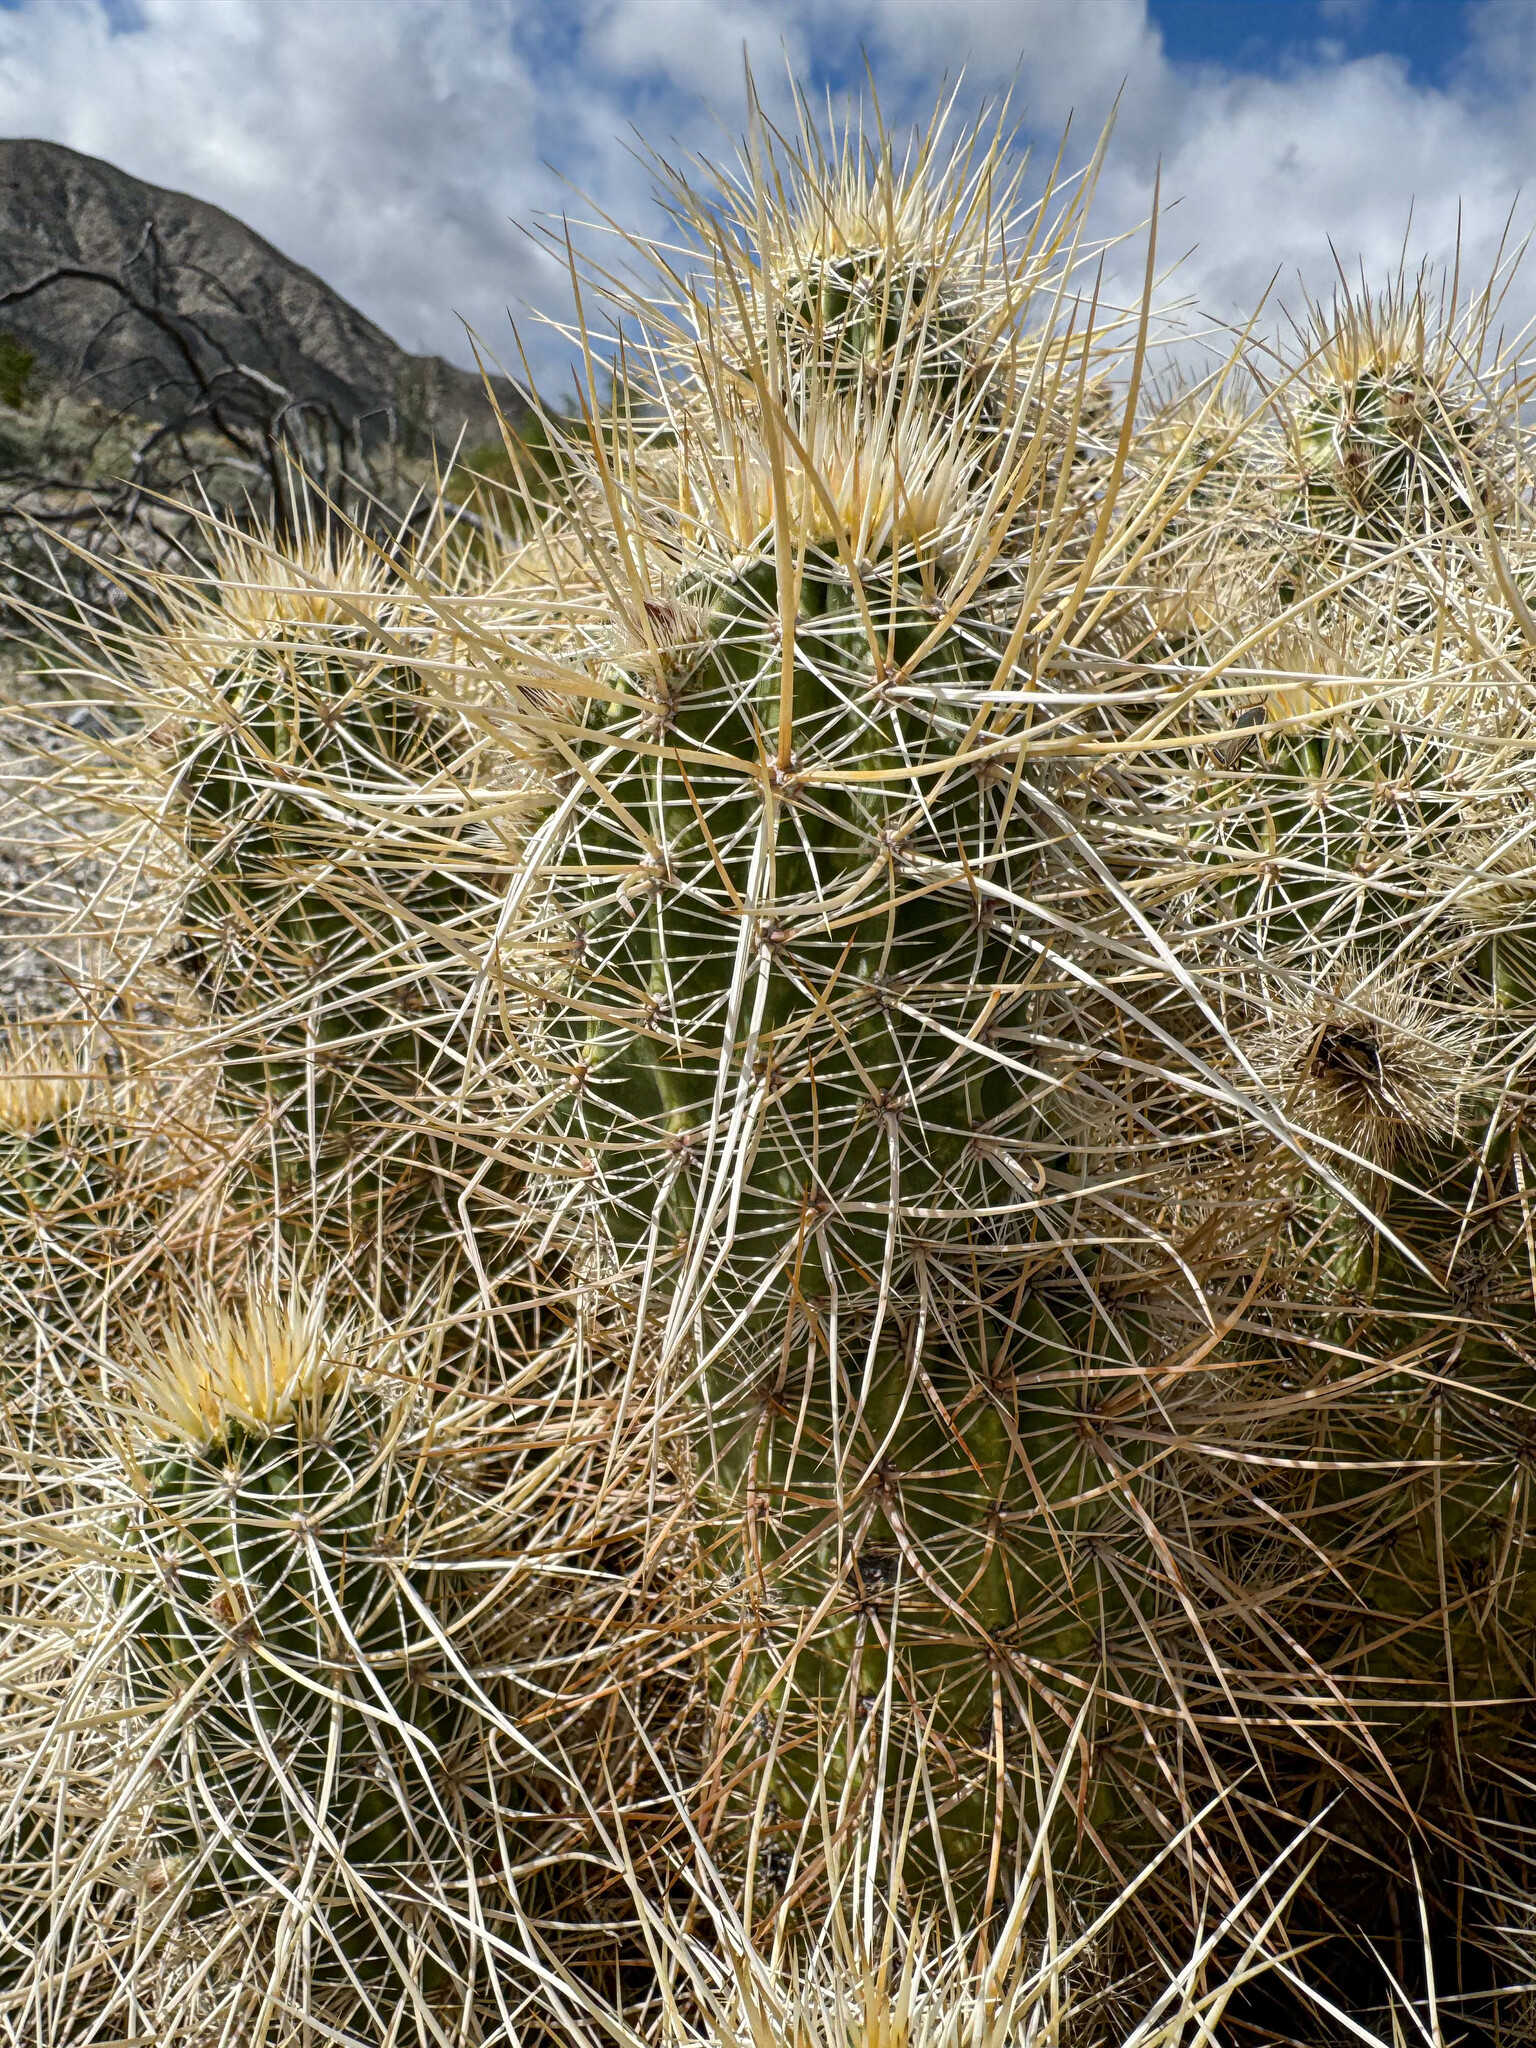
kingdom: Plantae
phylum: Tracheophyta
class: Magnoliopsida
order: Caryophyllales
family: Cactaceae
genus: Echinocereus
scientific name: Echinocereus engelmannii
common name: Engelmann's hedgehog cactus
